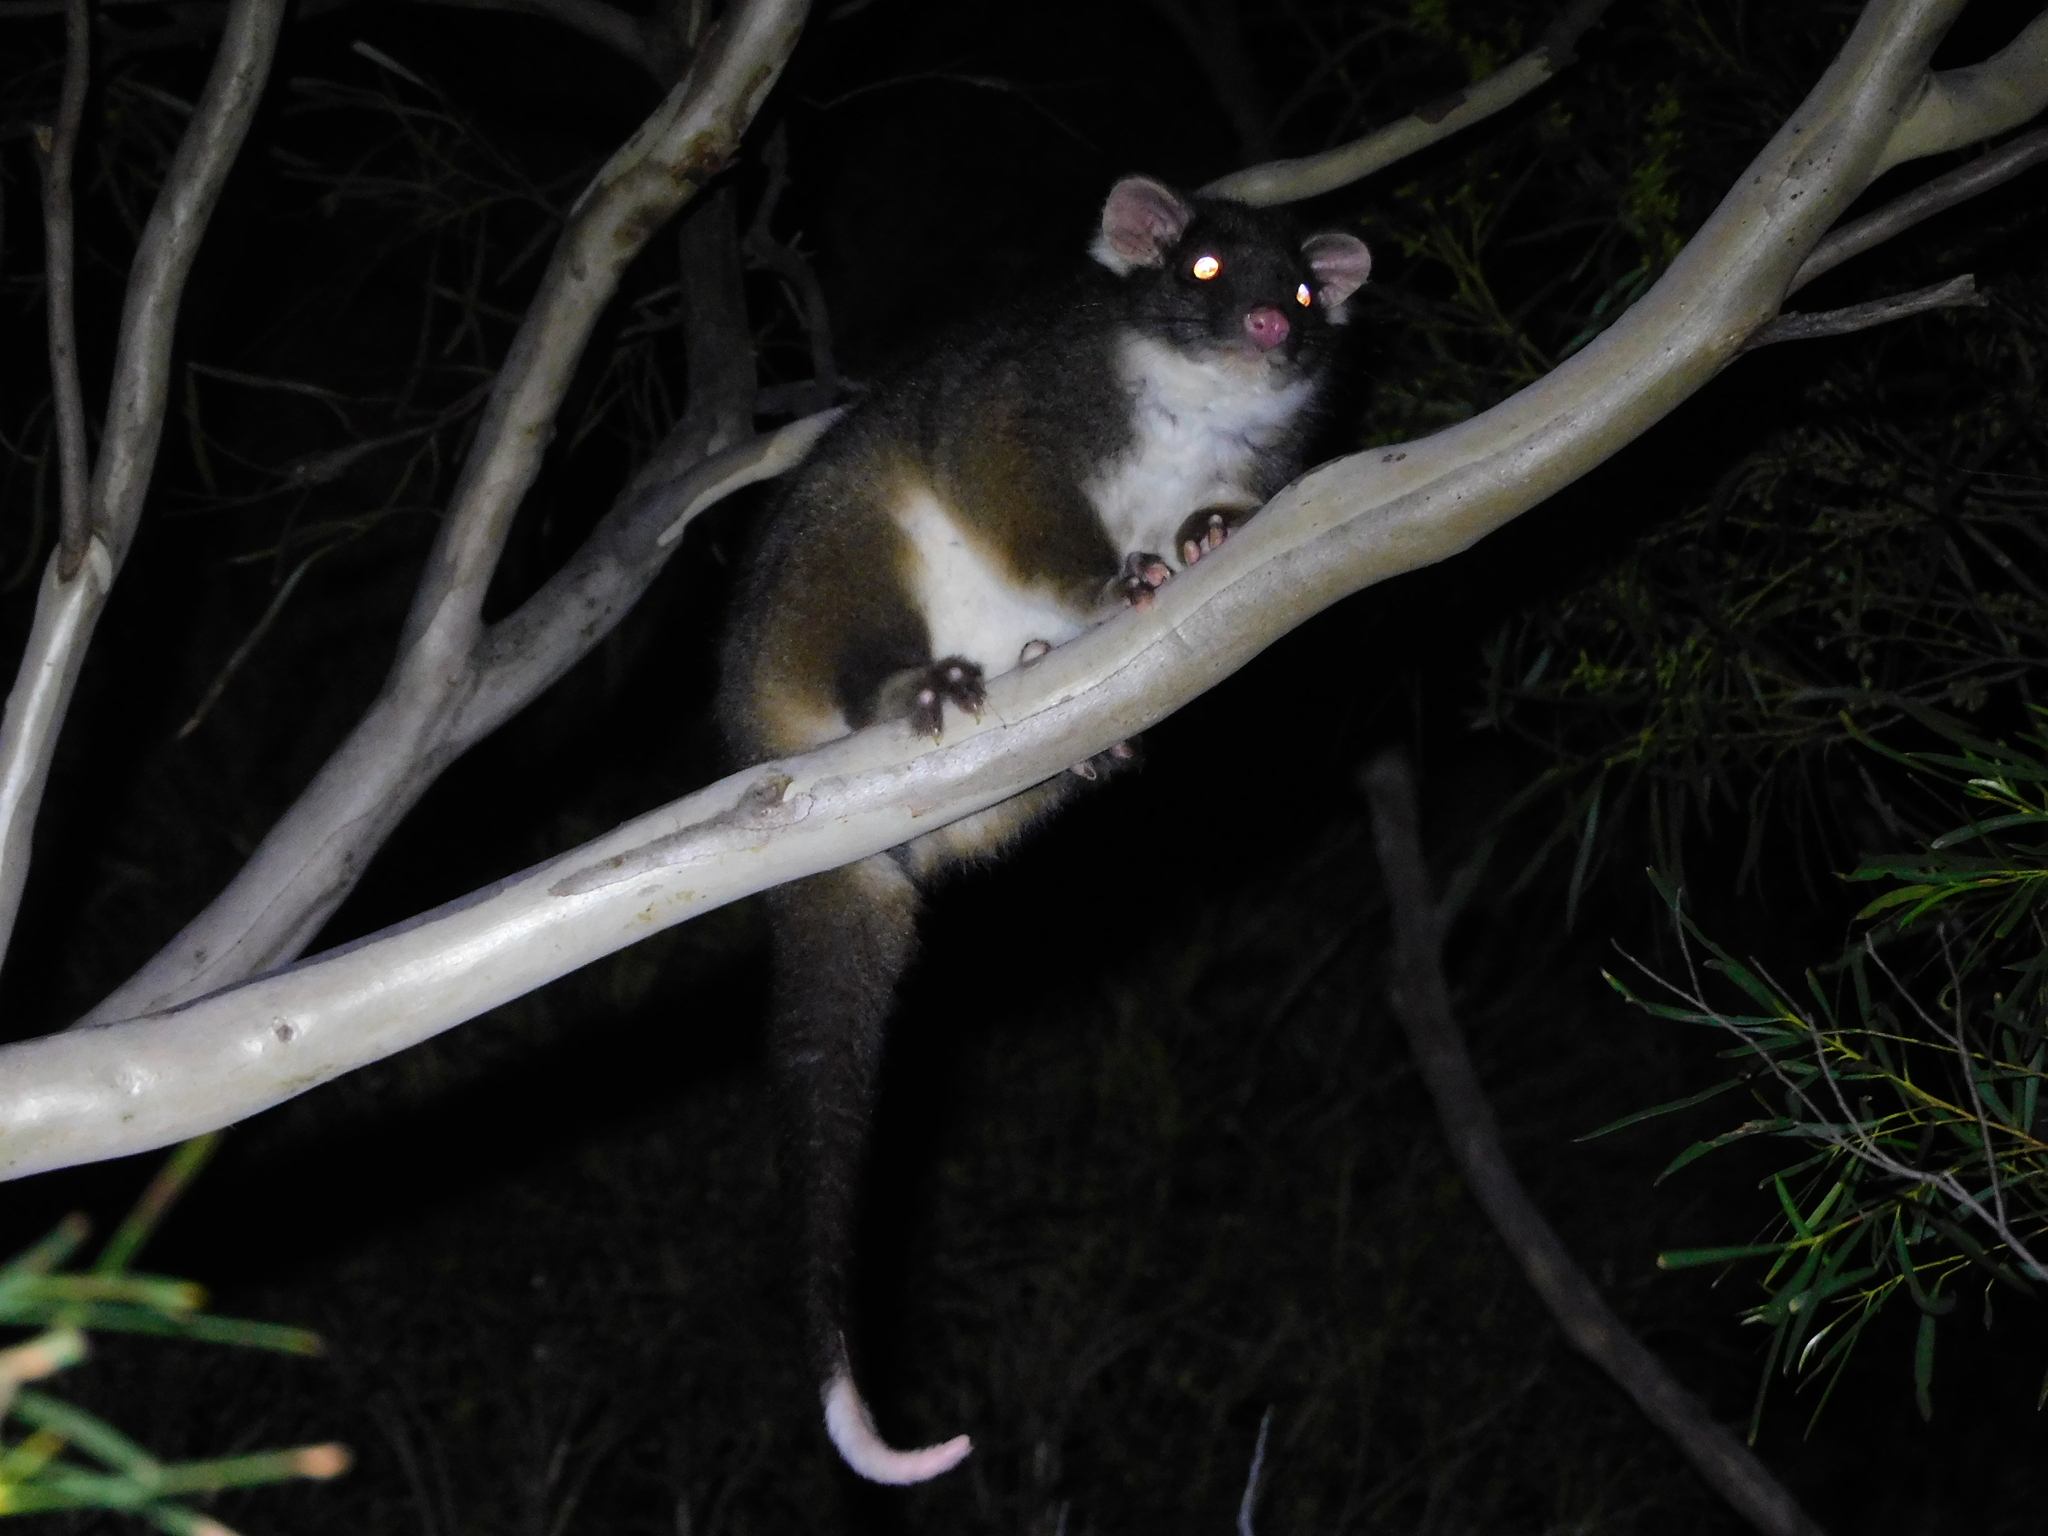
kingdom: Animalia
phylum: Chordata
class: Mammalia
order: Diprotodontia
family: Pseudocheiridae
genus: Pseudocheirus
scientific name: Pseudocheirus peregrinus
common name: Common ringtail possum
